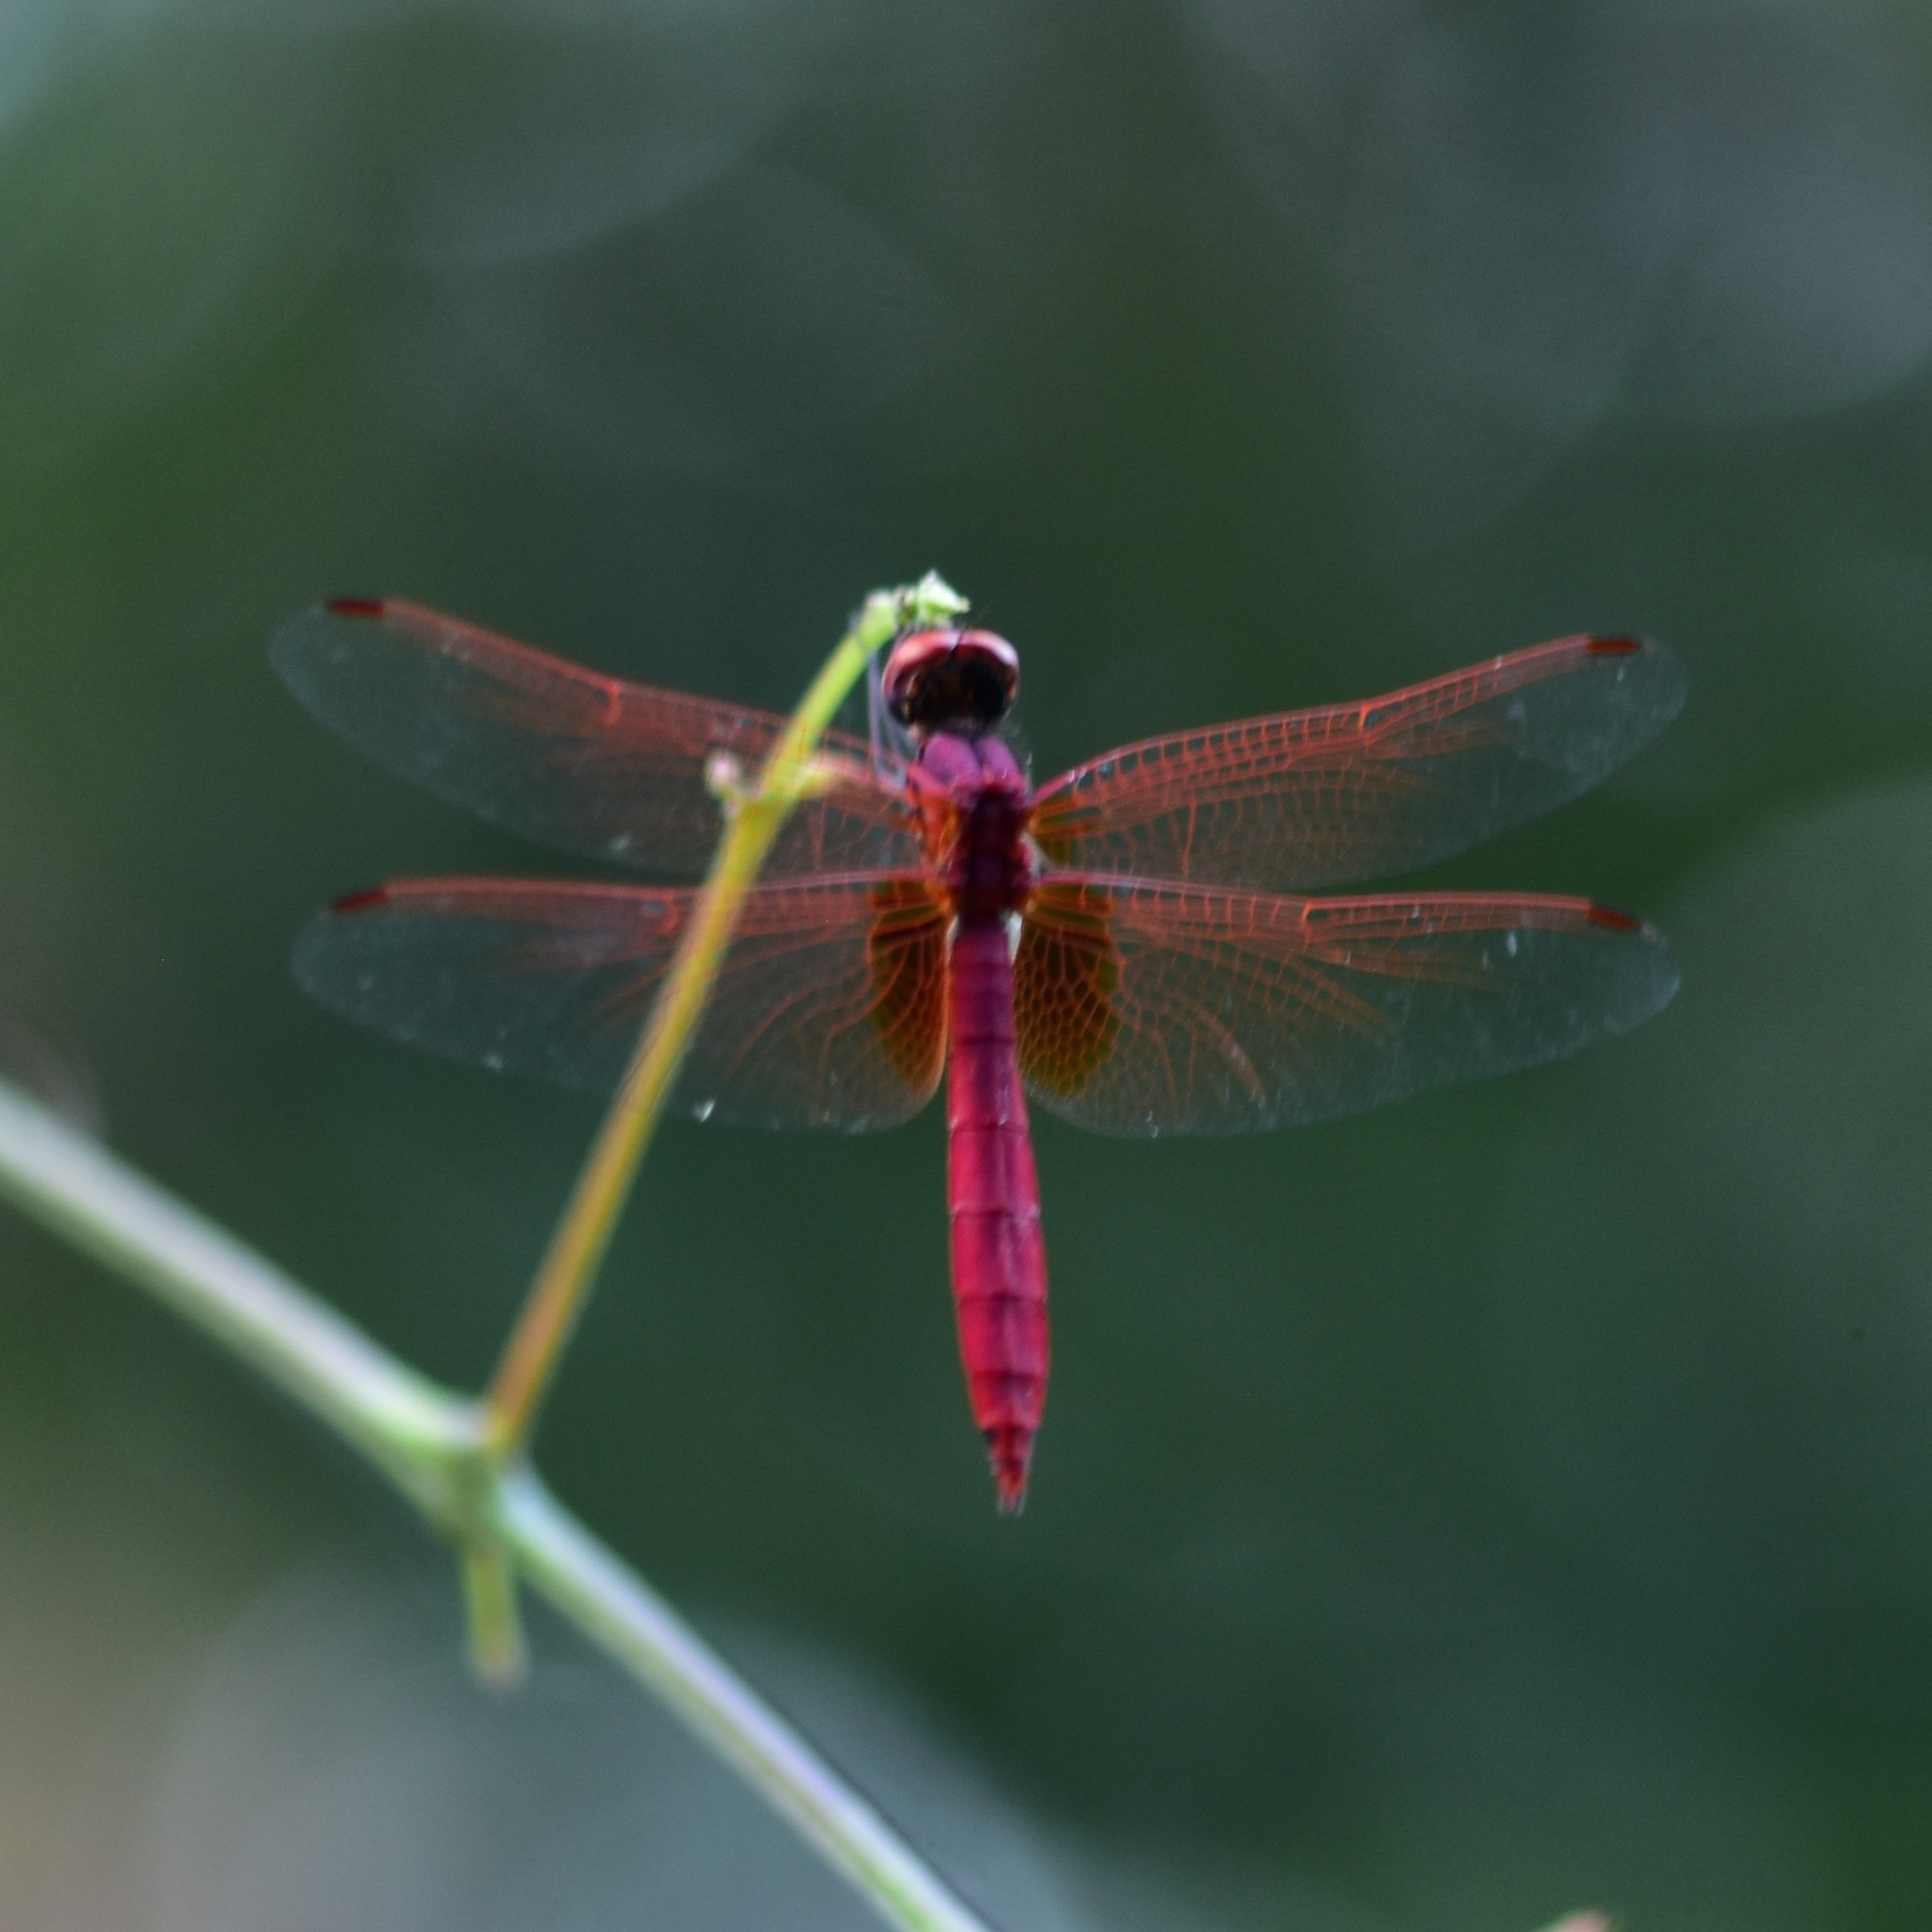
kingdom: Animalia
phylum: Arthropoda
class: Insecta
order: Odonata
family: Libellulidae
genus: Trithemis
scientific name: Trithemis aurora
